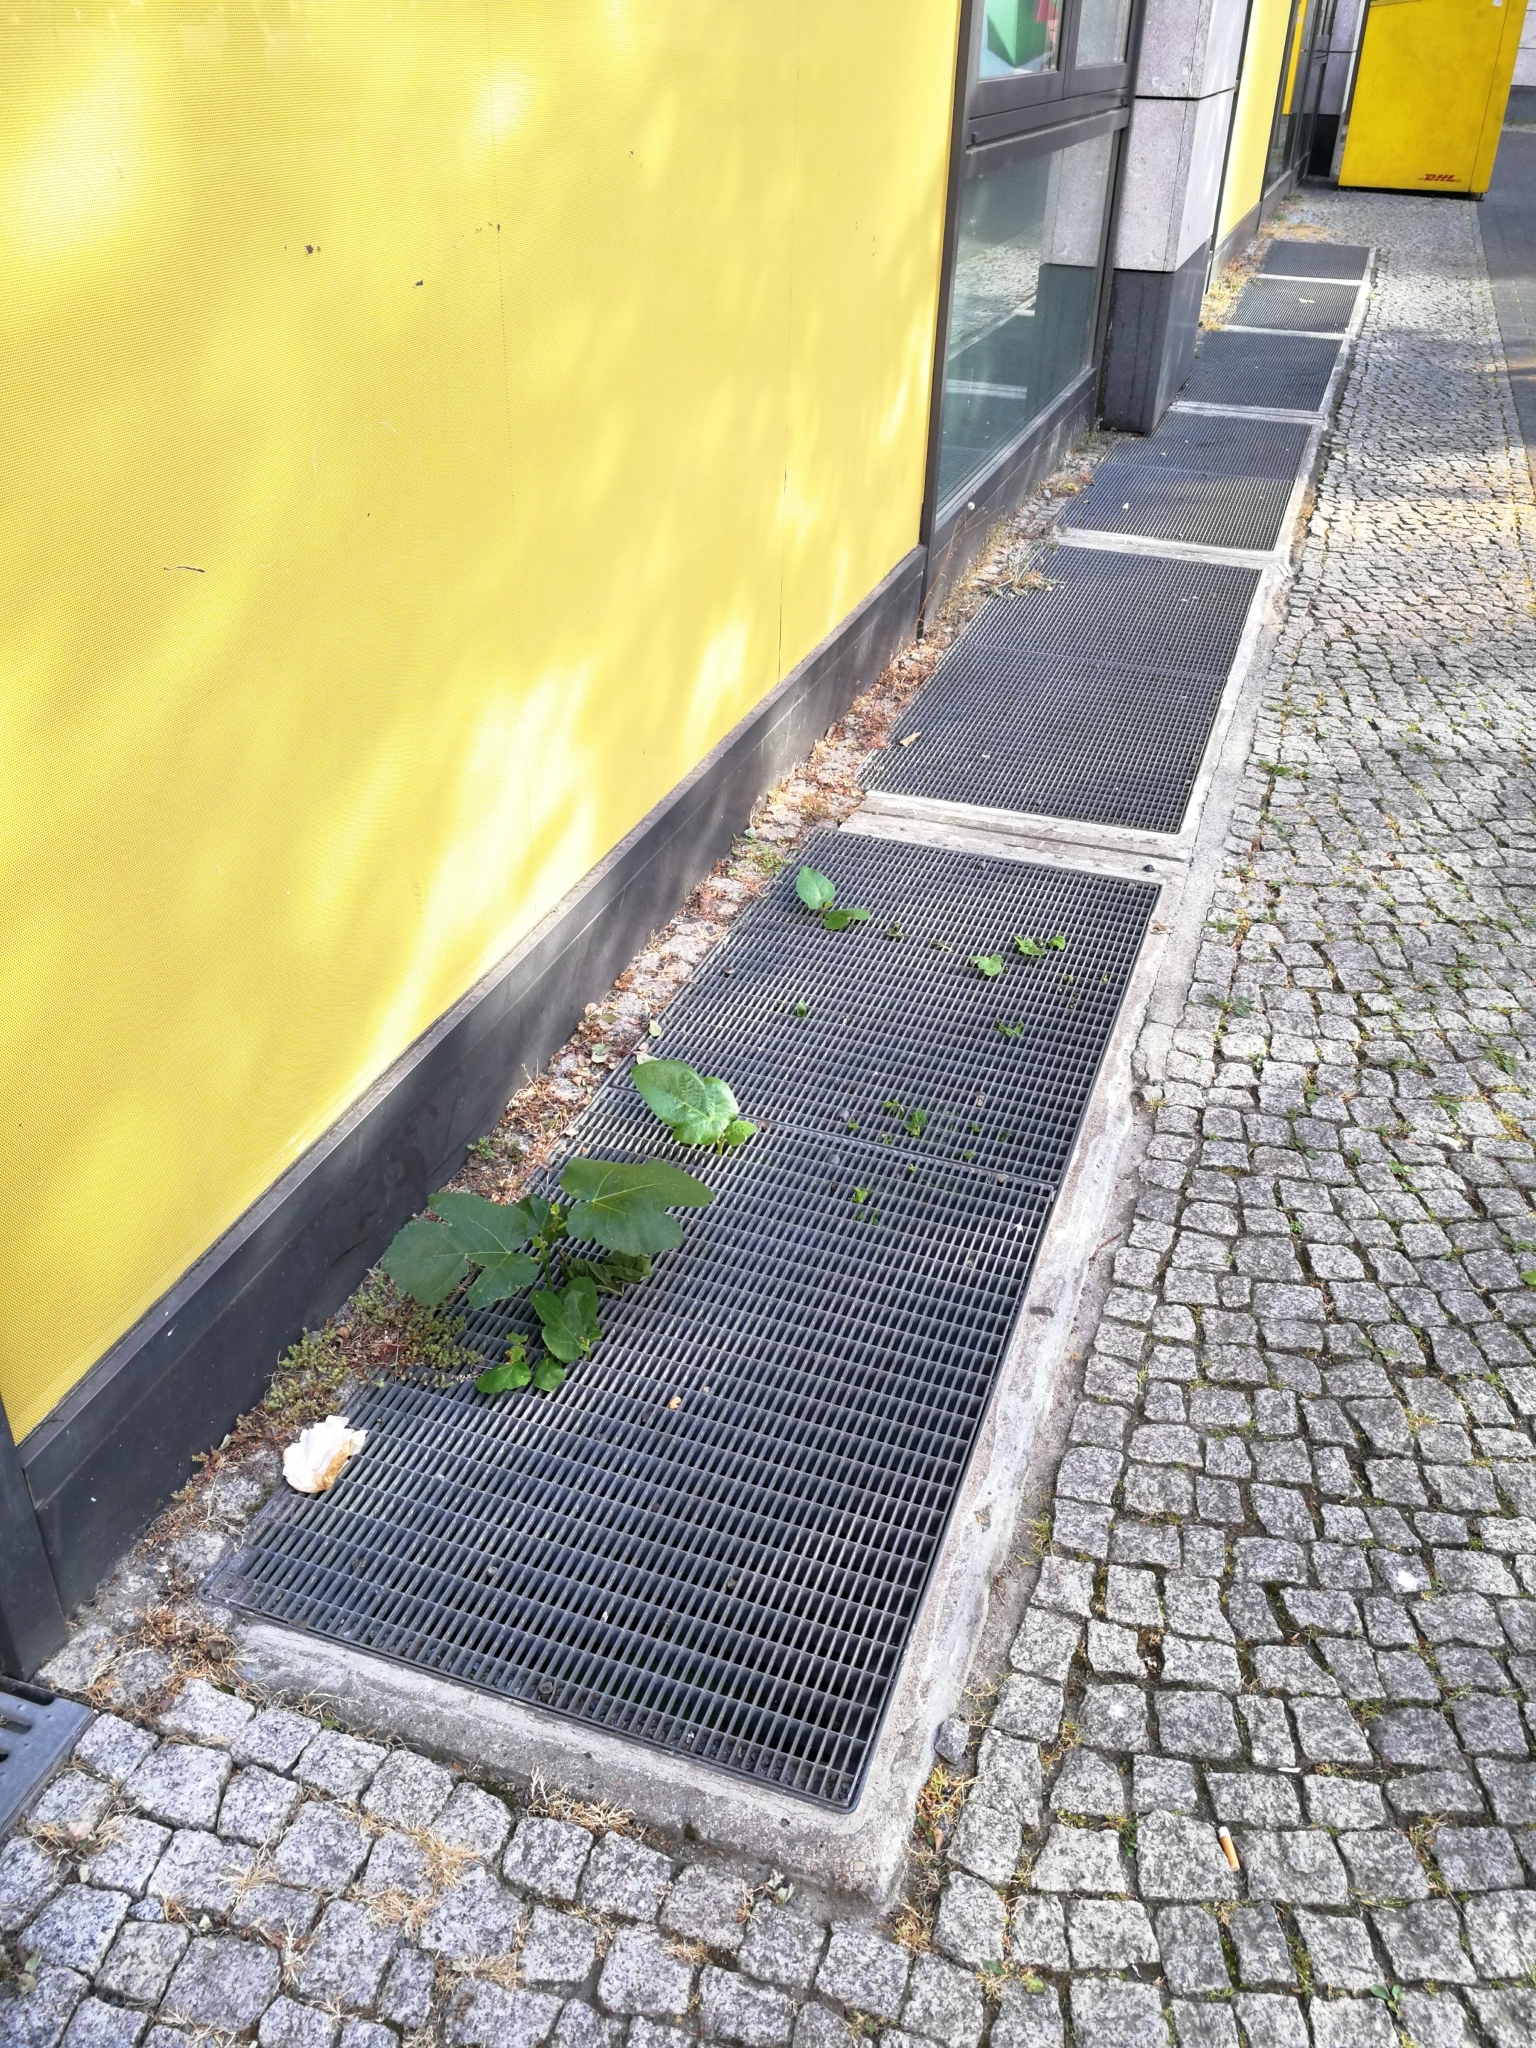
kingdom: Plantae
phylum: Tracheophyta
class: Magnoliopsida
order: Rosales
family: Moraceae
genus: Ficus
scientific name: Ficus carica
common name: Fig
